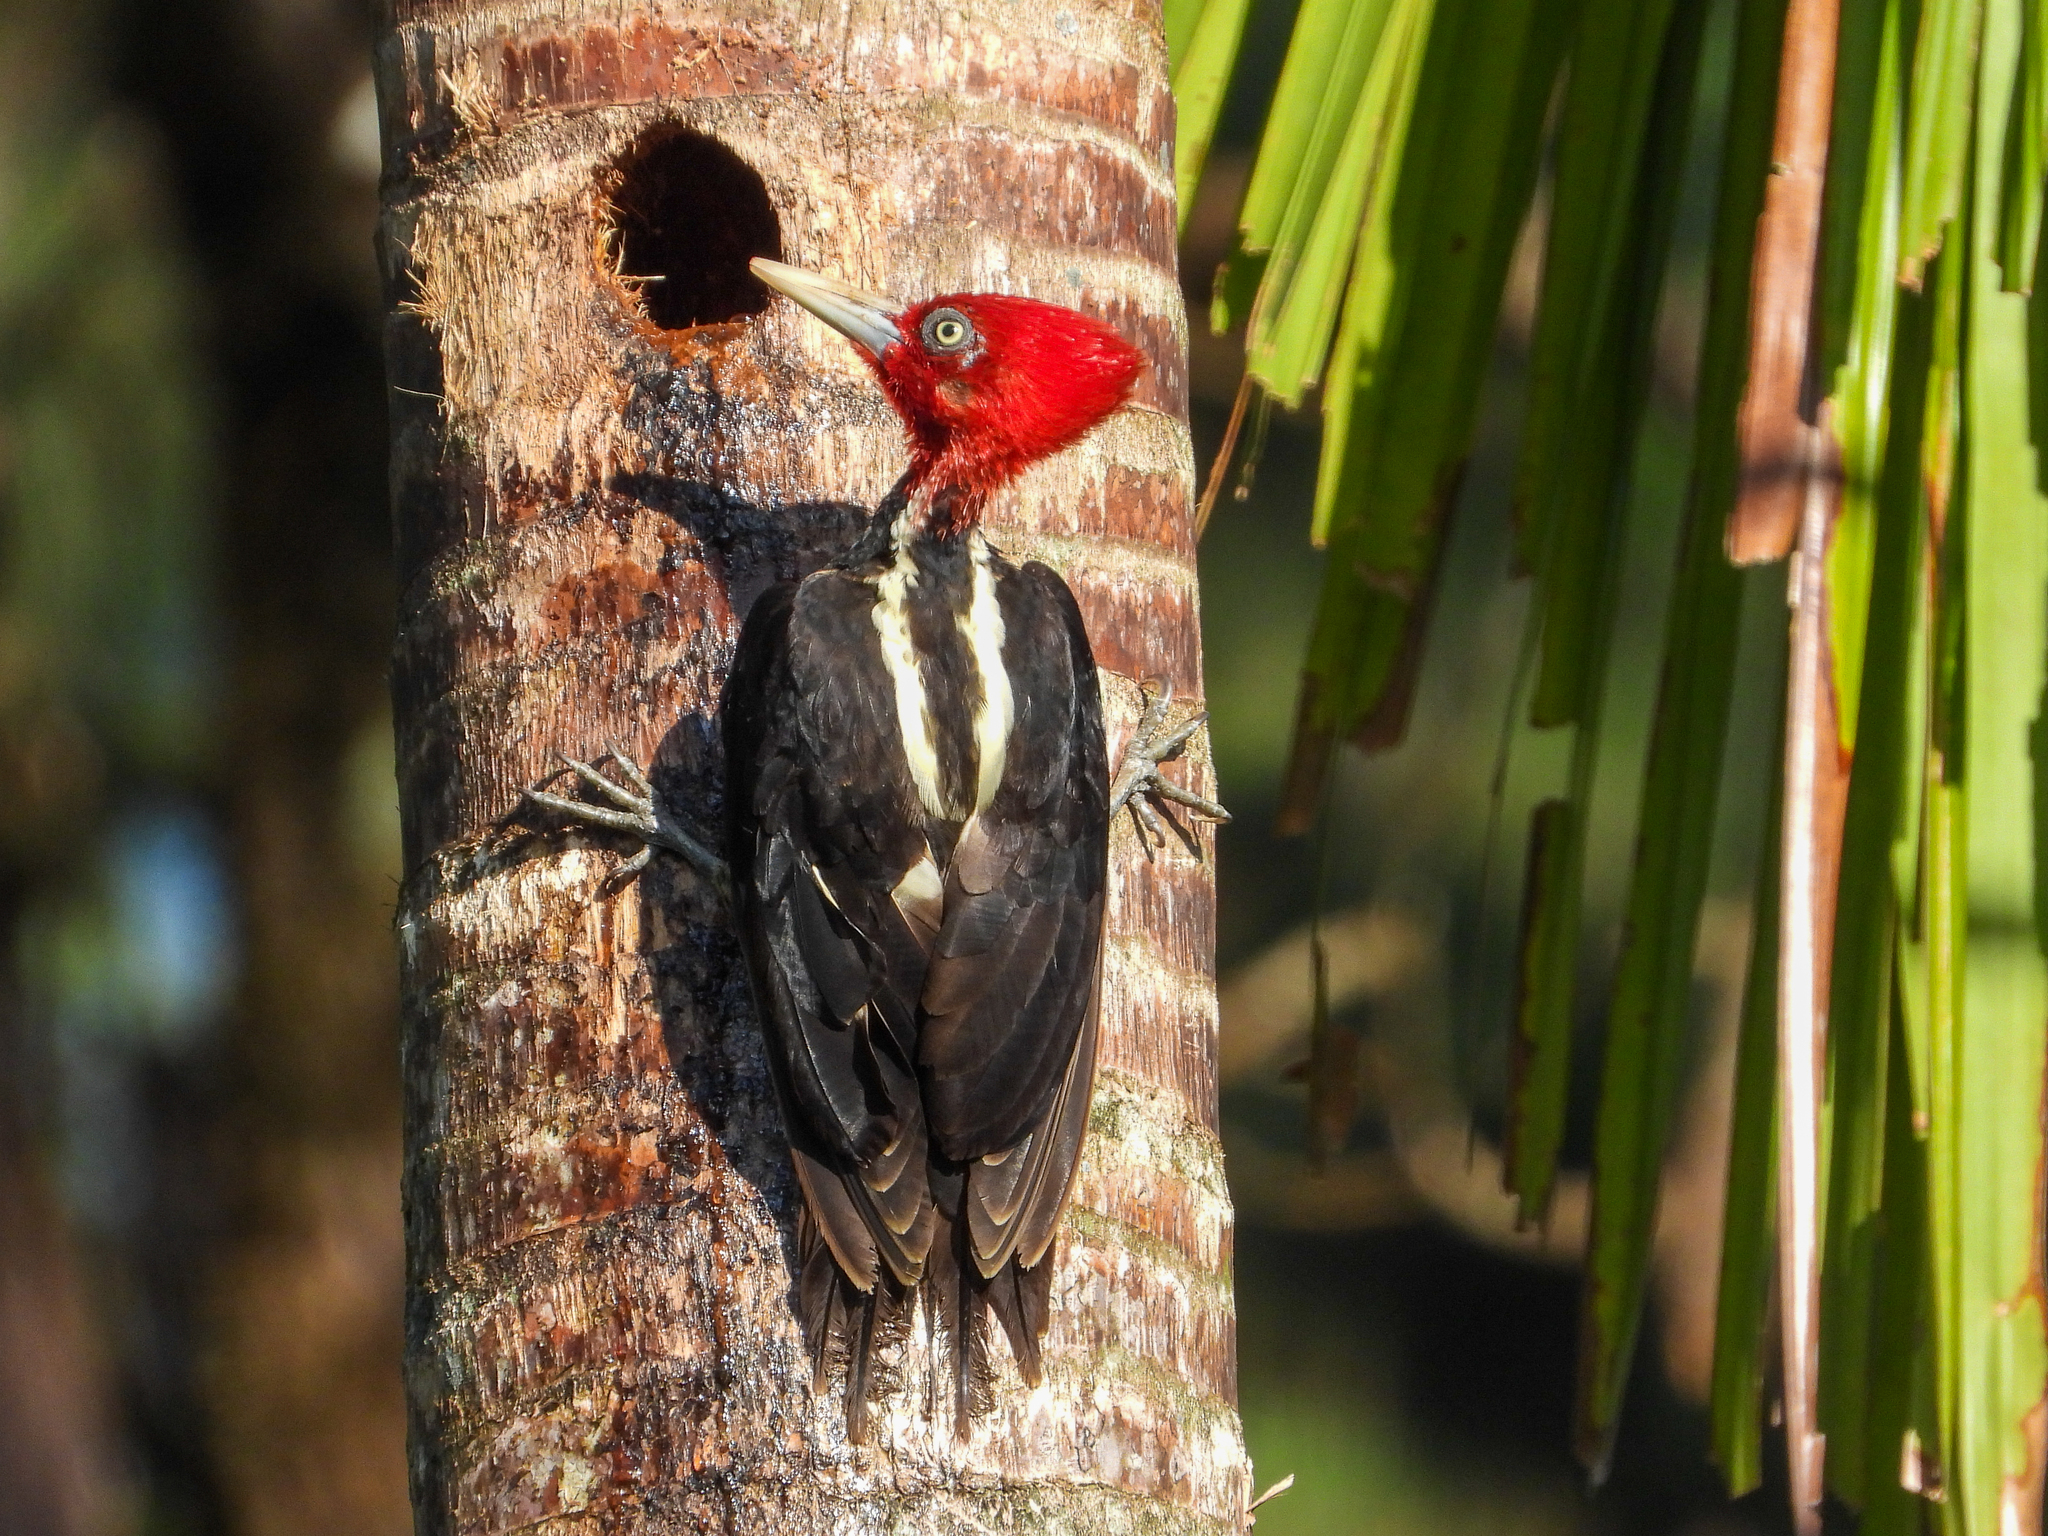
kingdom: Animalia
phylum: Chordata
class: Aves
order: Piciformes
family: Picidae
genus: Campephilus
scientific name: Campephilus guatemalensis
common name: Pale-billed woodpecker
